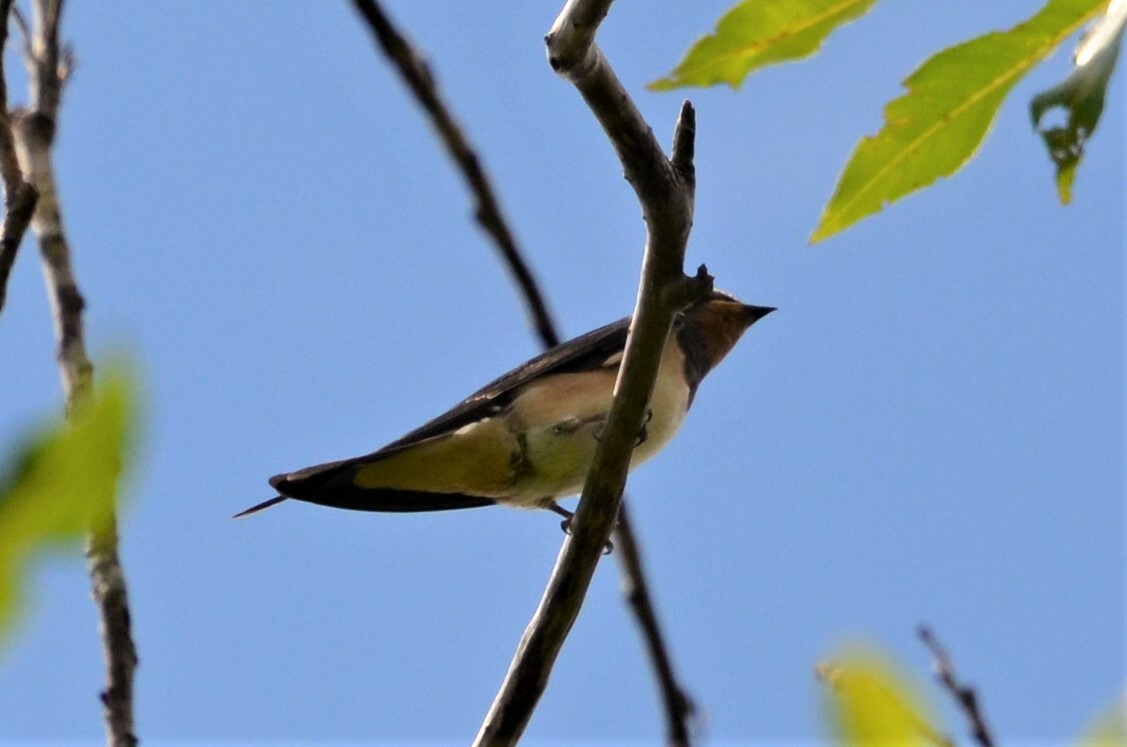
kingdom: Animalia
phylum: Chordata
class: Aves
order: Passeriformes
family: Hirundinidae
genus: Hirundo
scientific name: Hirundo rustica
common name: Barn swallow
